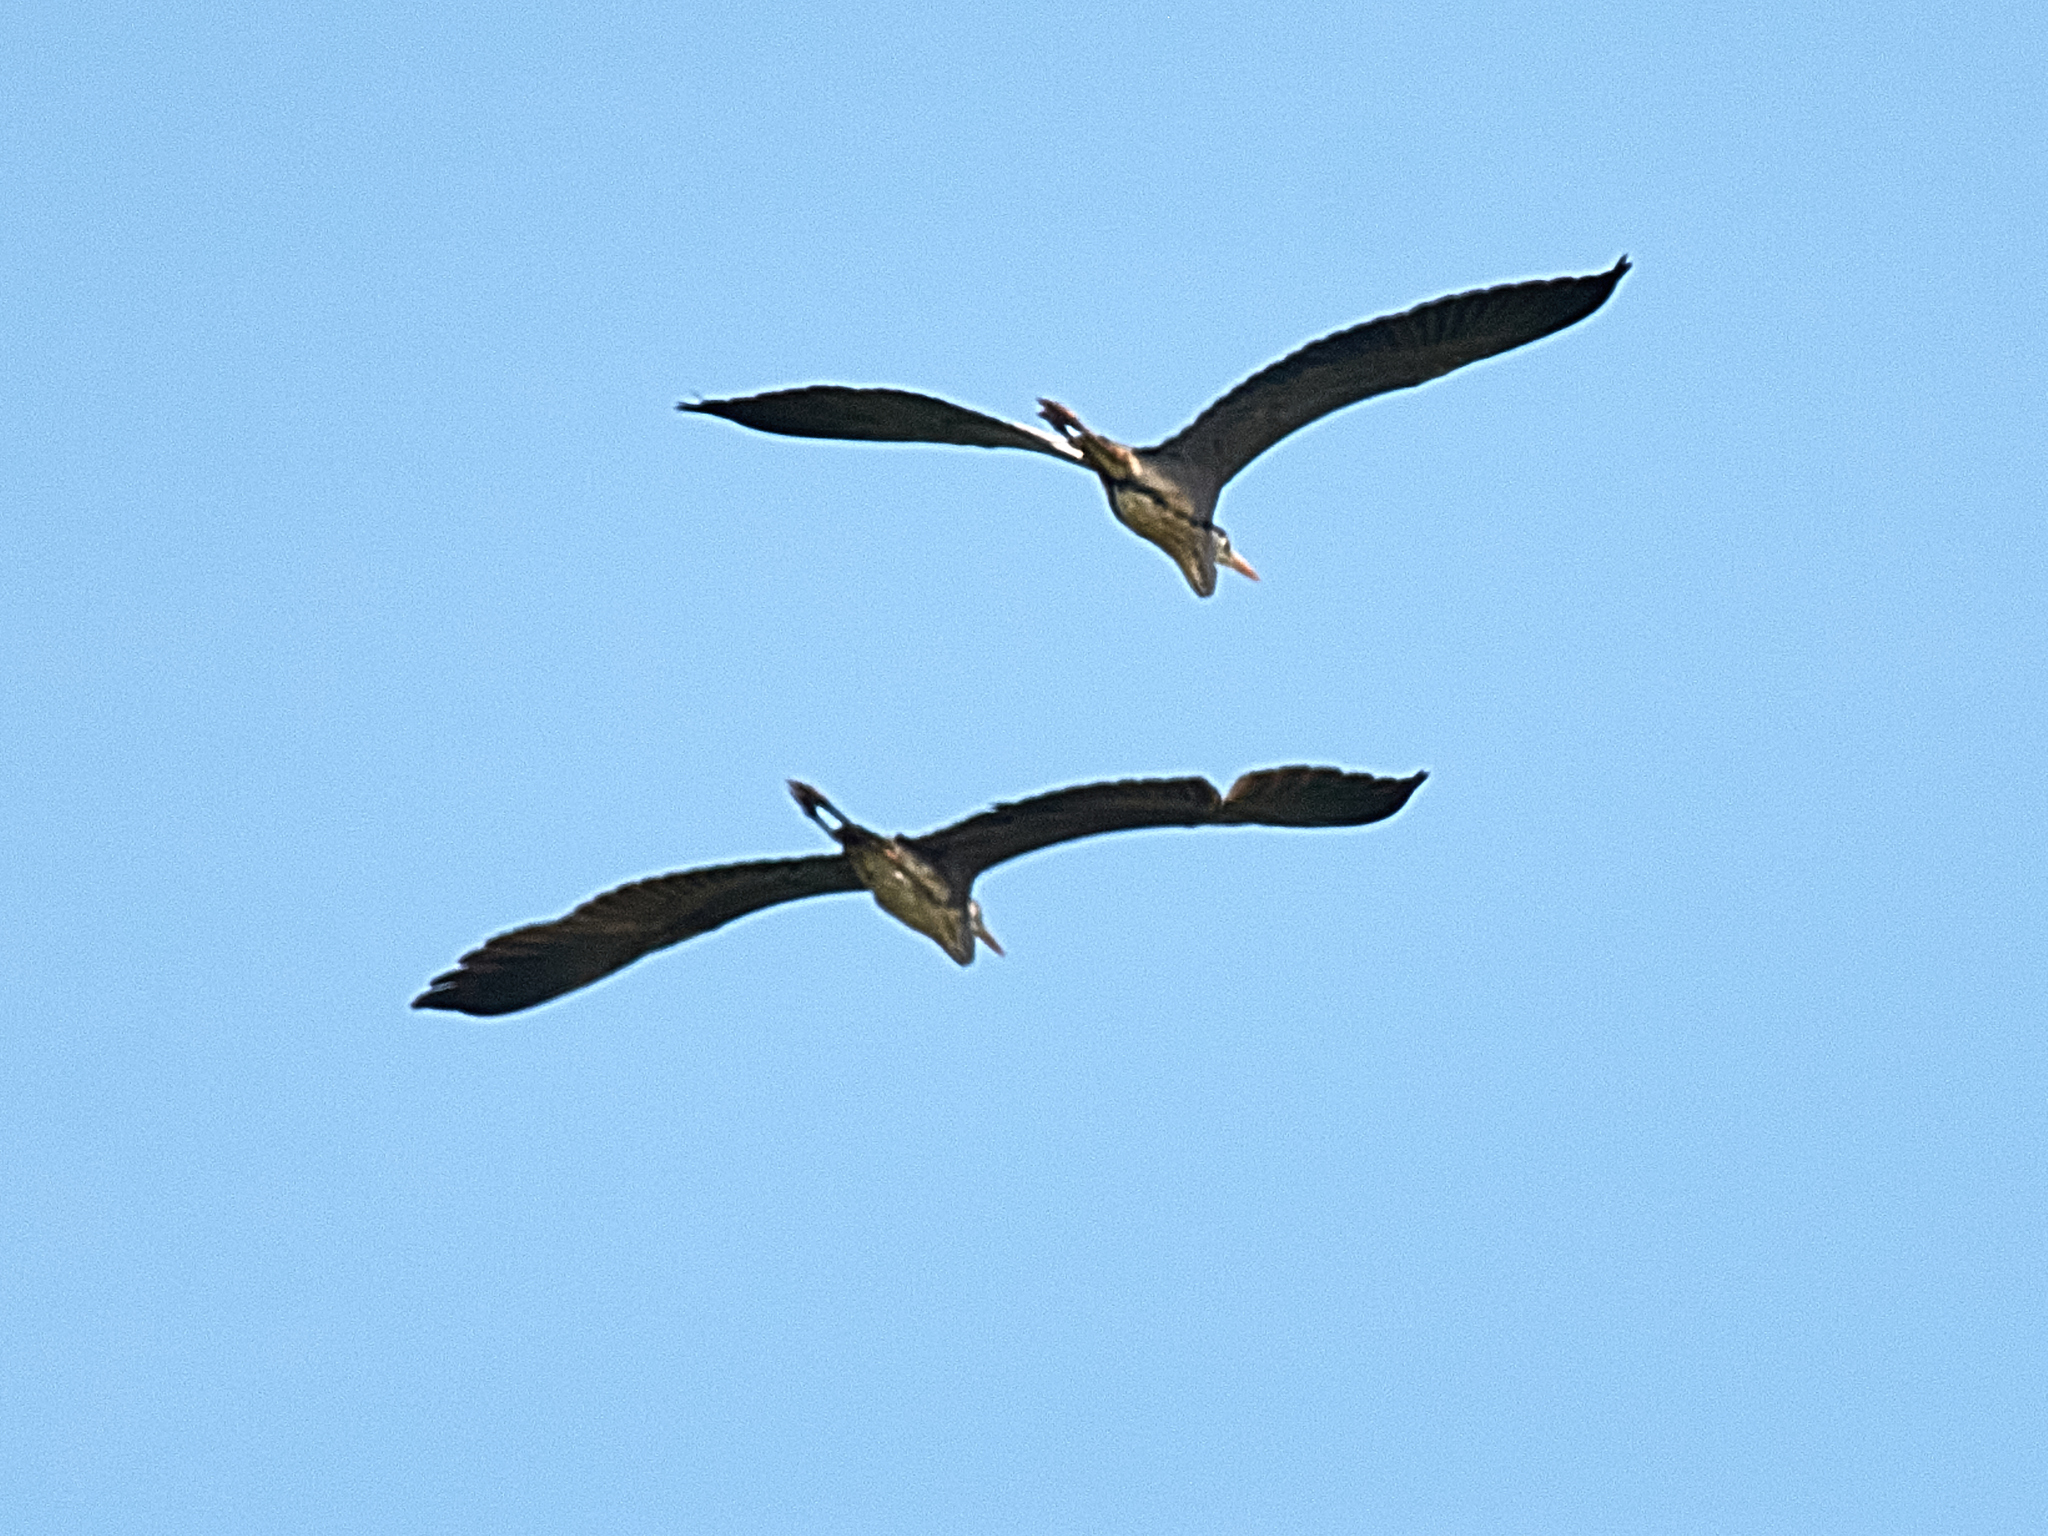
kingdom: Animalia
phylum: Chordata
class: Aves
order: Pelecaniformes
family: Ardeidae
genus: Ardea
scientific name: Ardea cinerea
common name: Grey heron
